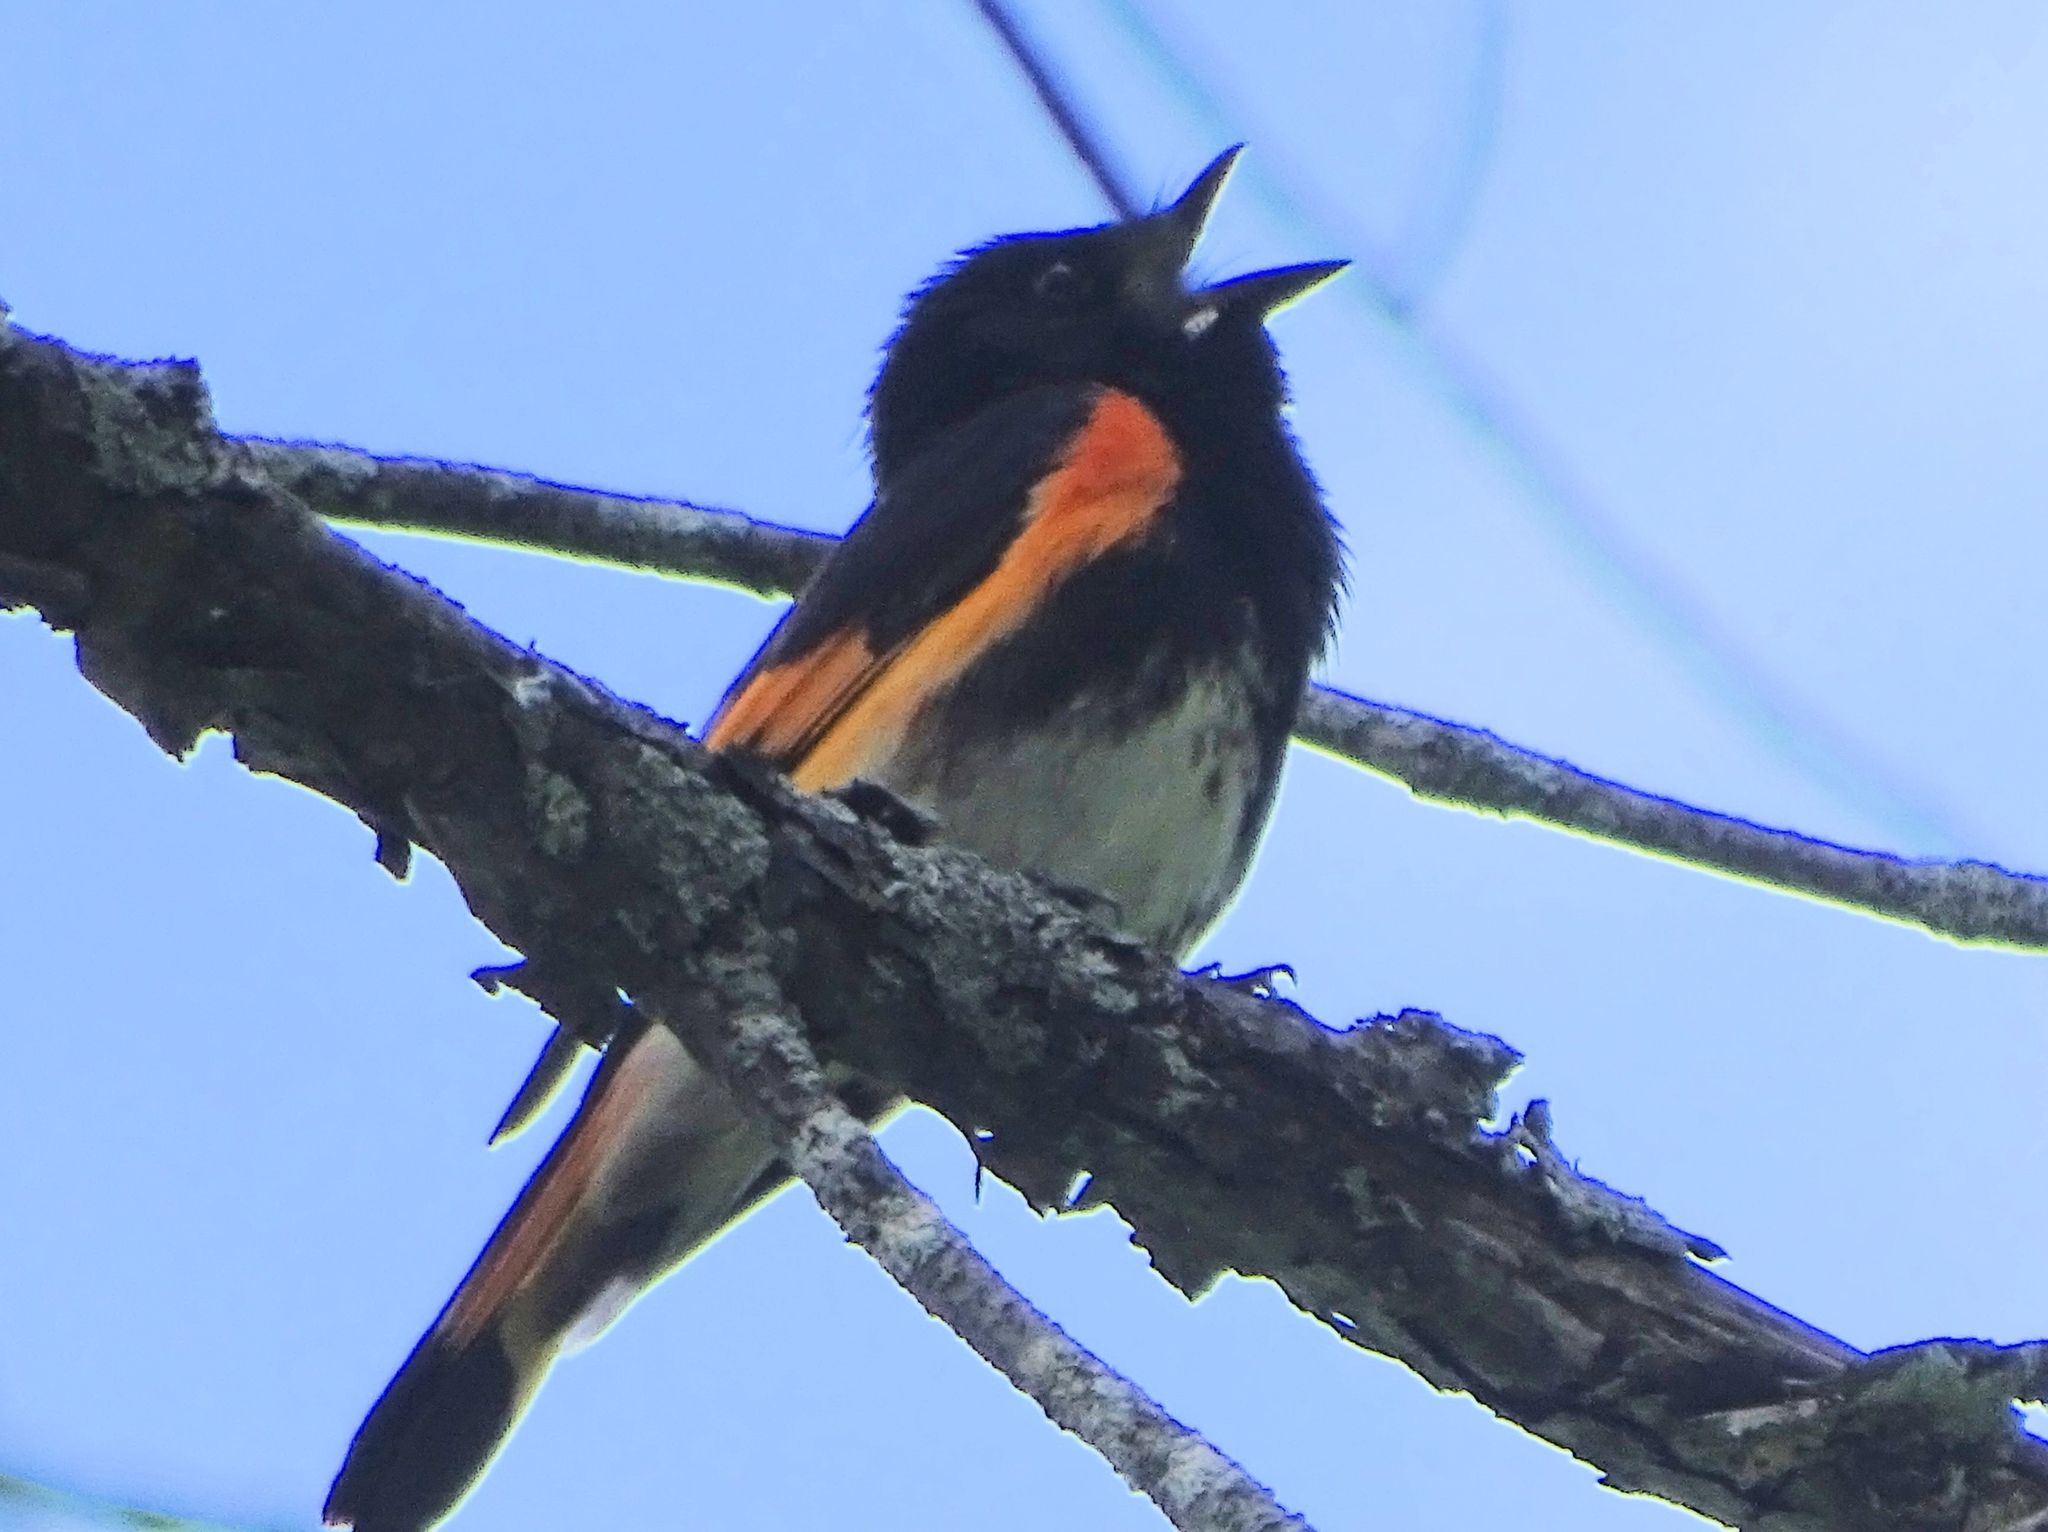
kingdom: Animalia
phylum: Chordata
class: Aves
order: Passeriformes
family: Parulidae
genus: Setophaga
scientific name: Setophaga ruticilla
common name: American redstart
